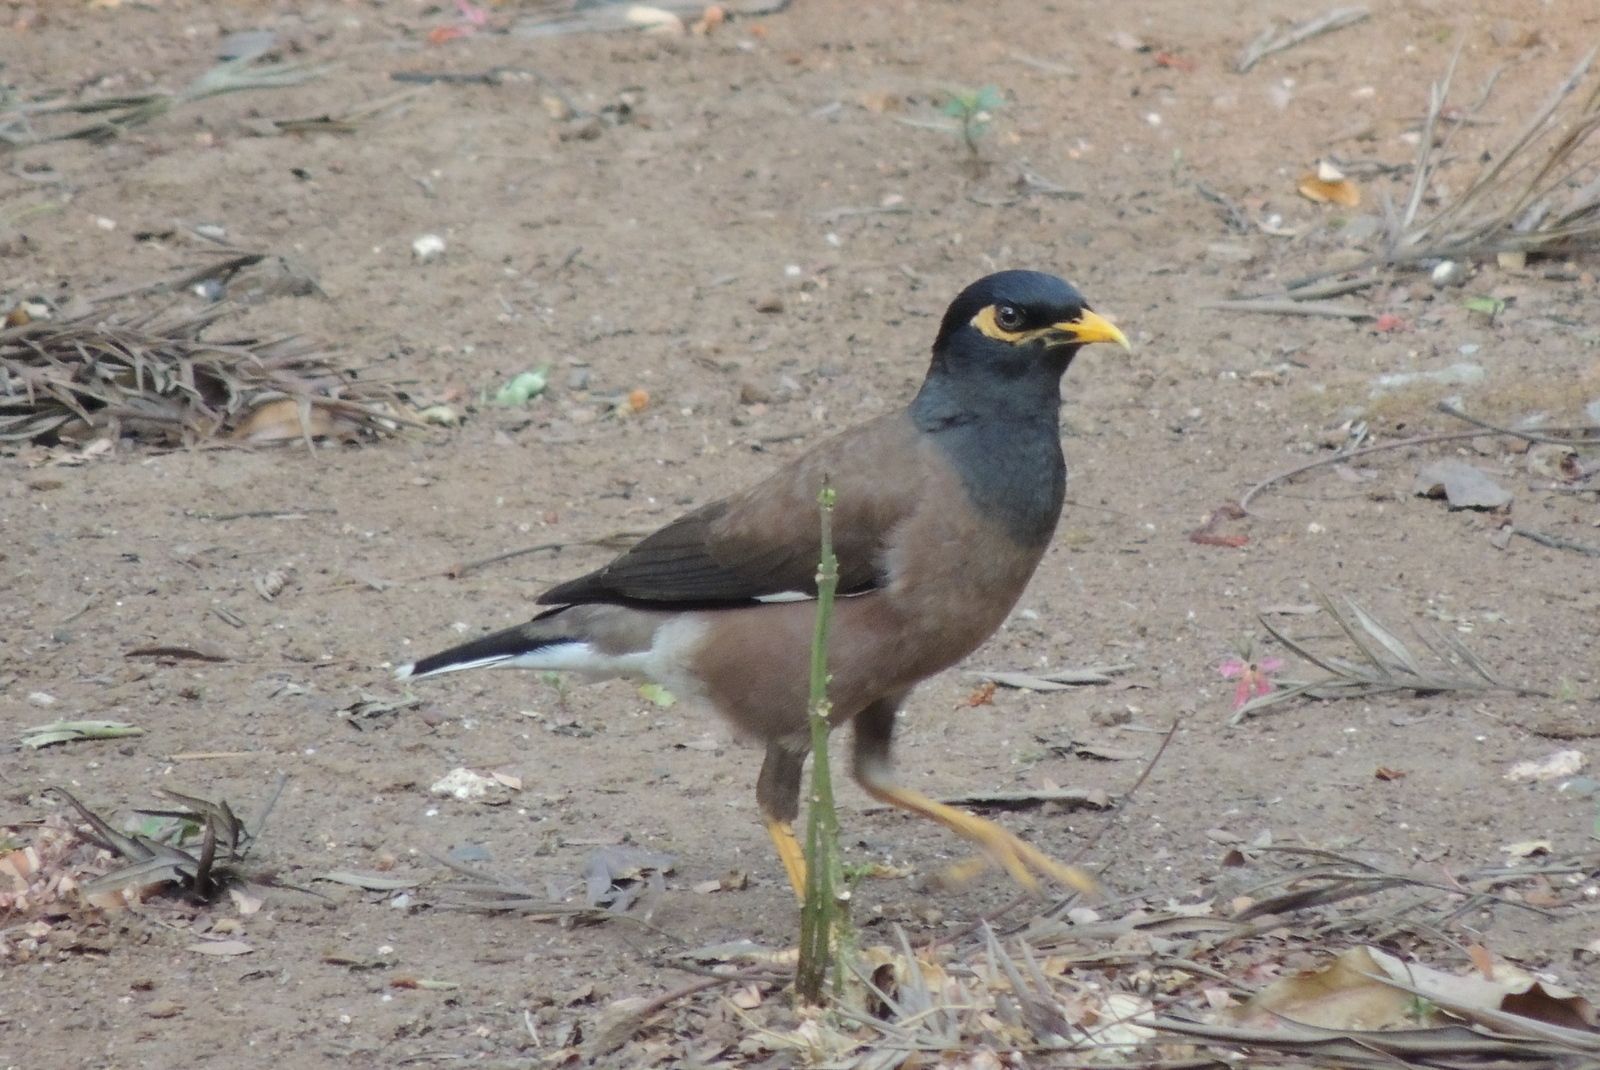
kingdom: Animalia
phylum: Chordata
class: Aves
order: Passeriformes
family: Sturnidae
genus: Acridotheres
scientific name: Acridotheres tristis
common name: Common myna
